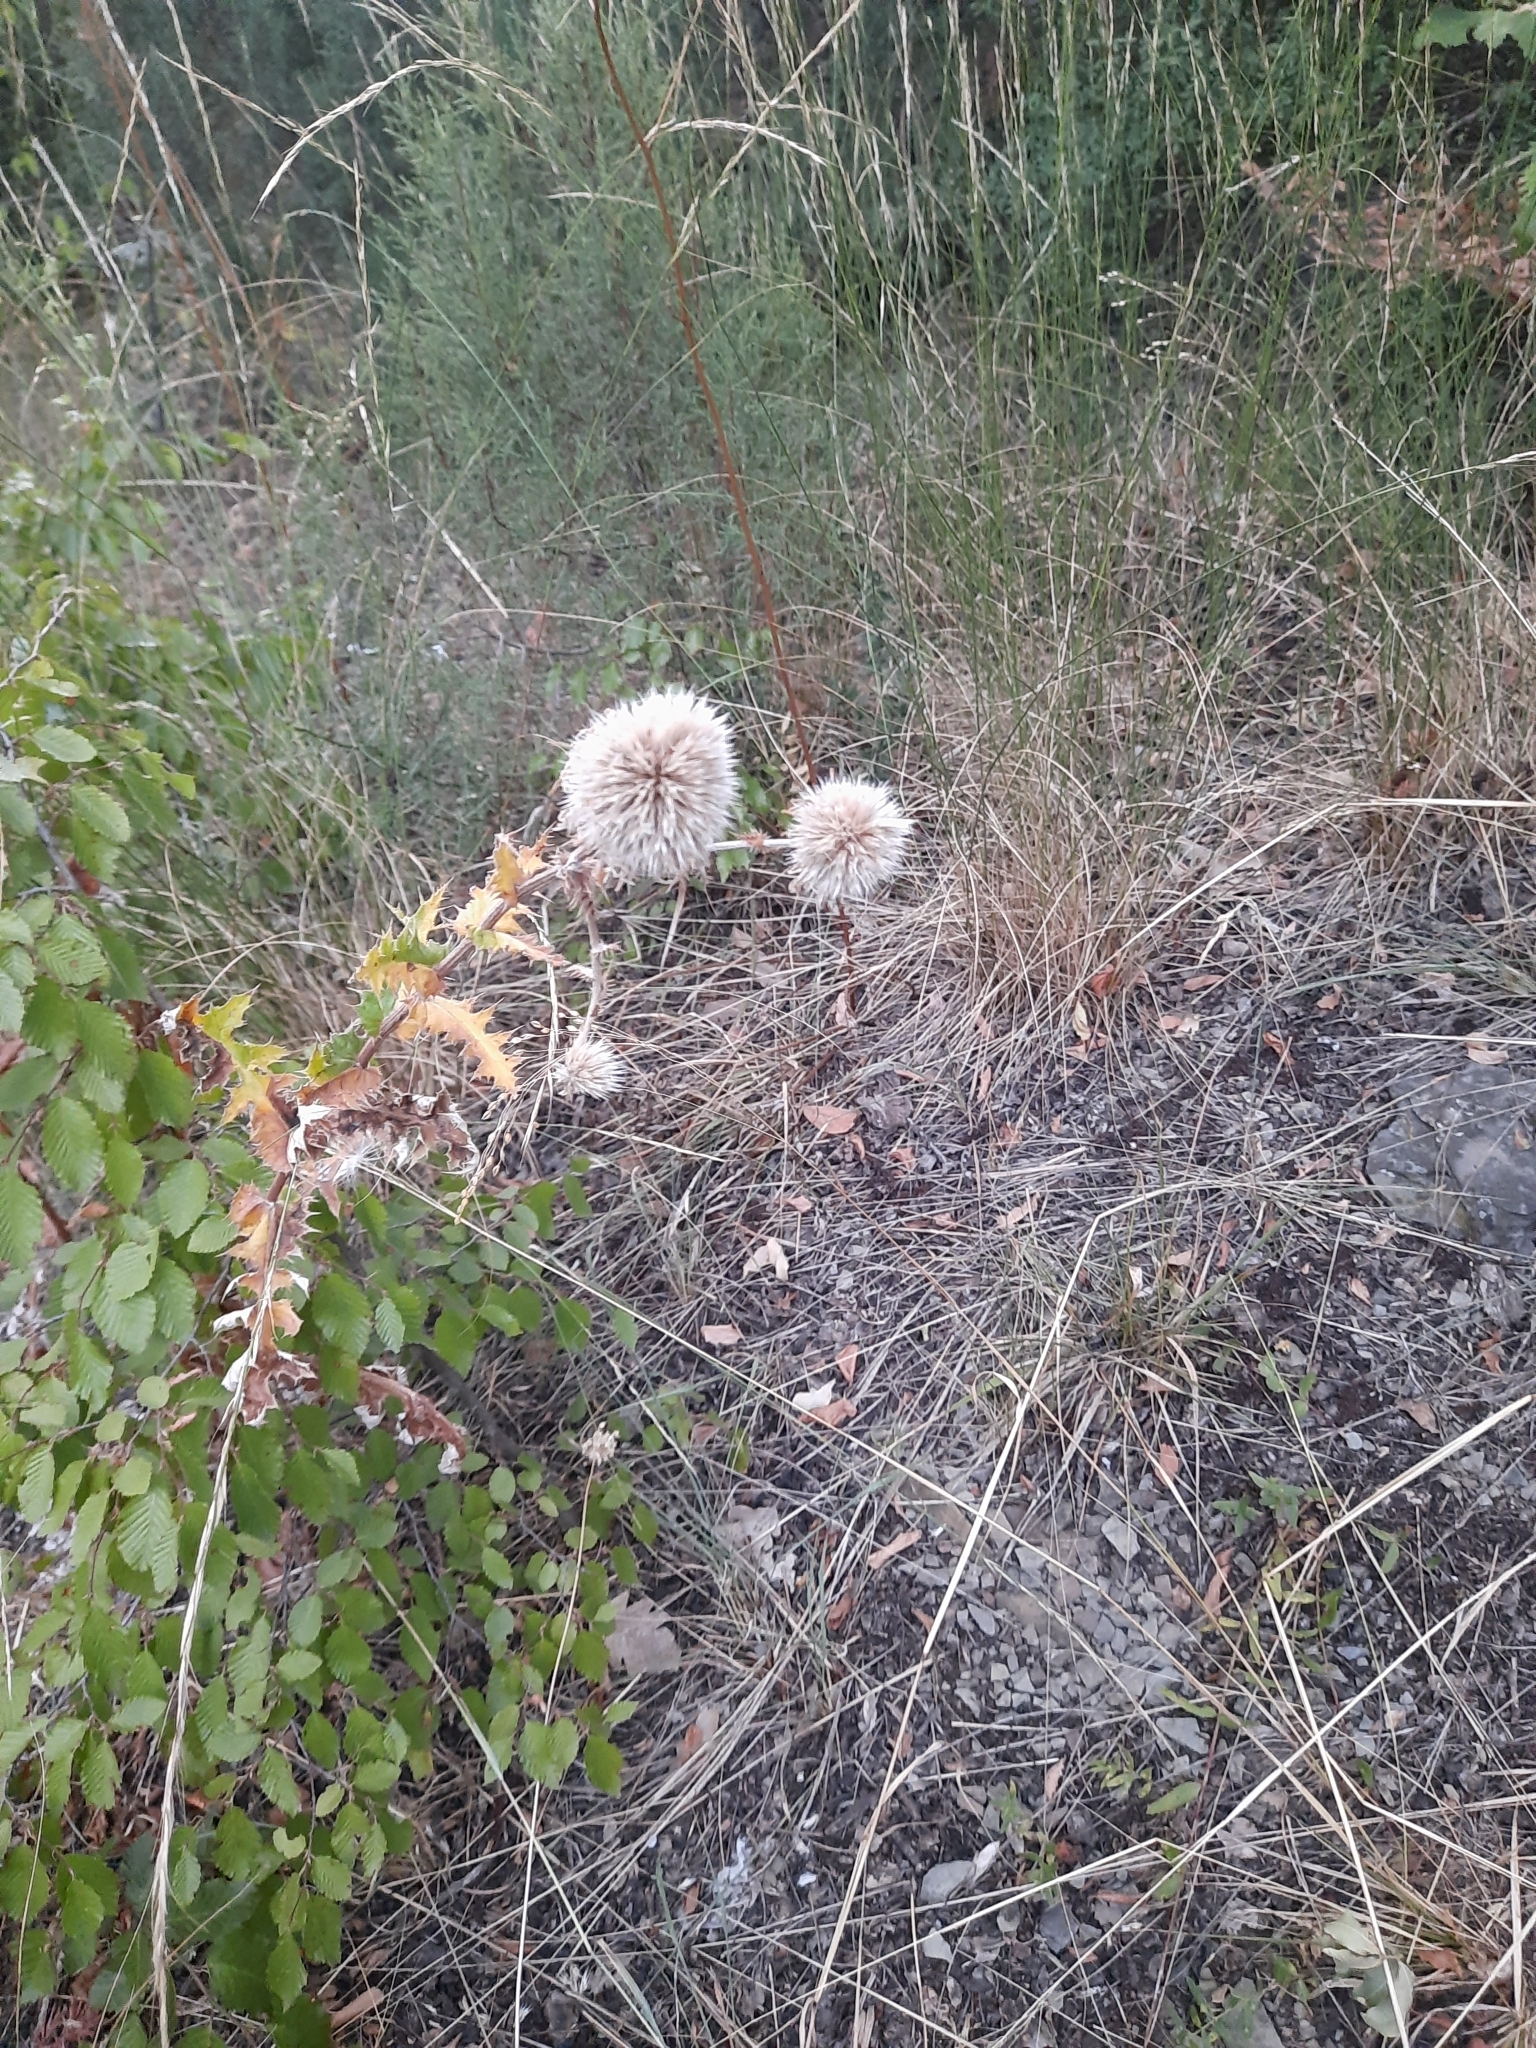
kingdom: Plantae
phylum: Tracheophyta
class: Magnoliopsida
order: Asterales
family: Asteraceae
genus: Echinops
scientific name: Echinops sphaerocephalus
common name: Glandular globe-thistle
